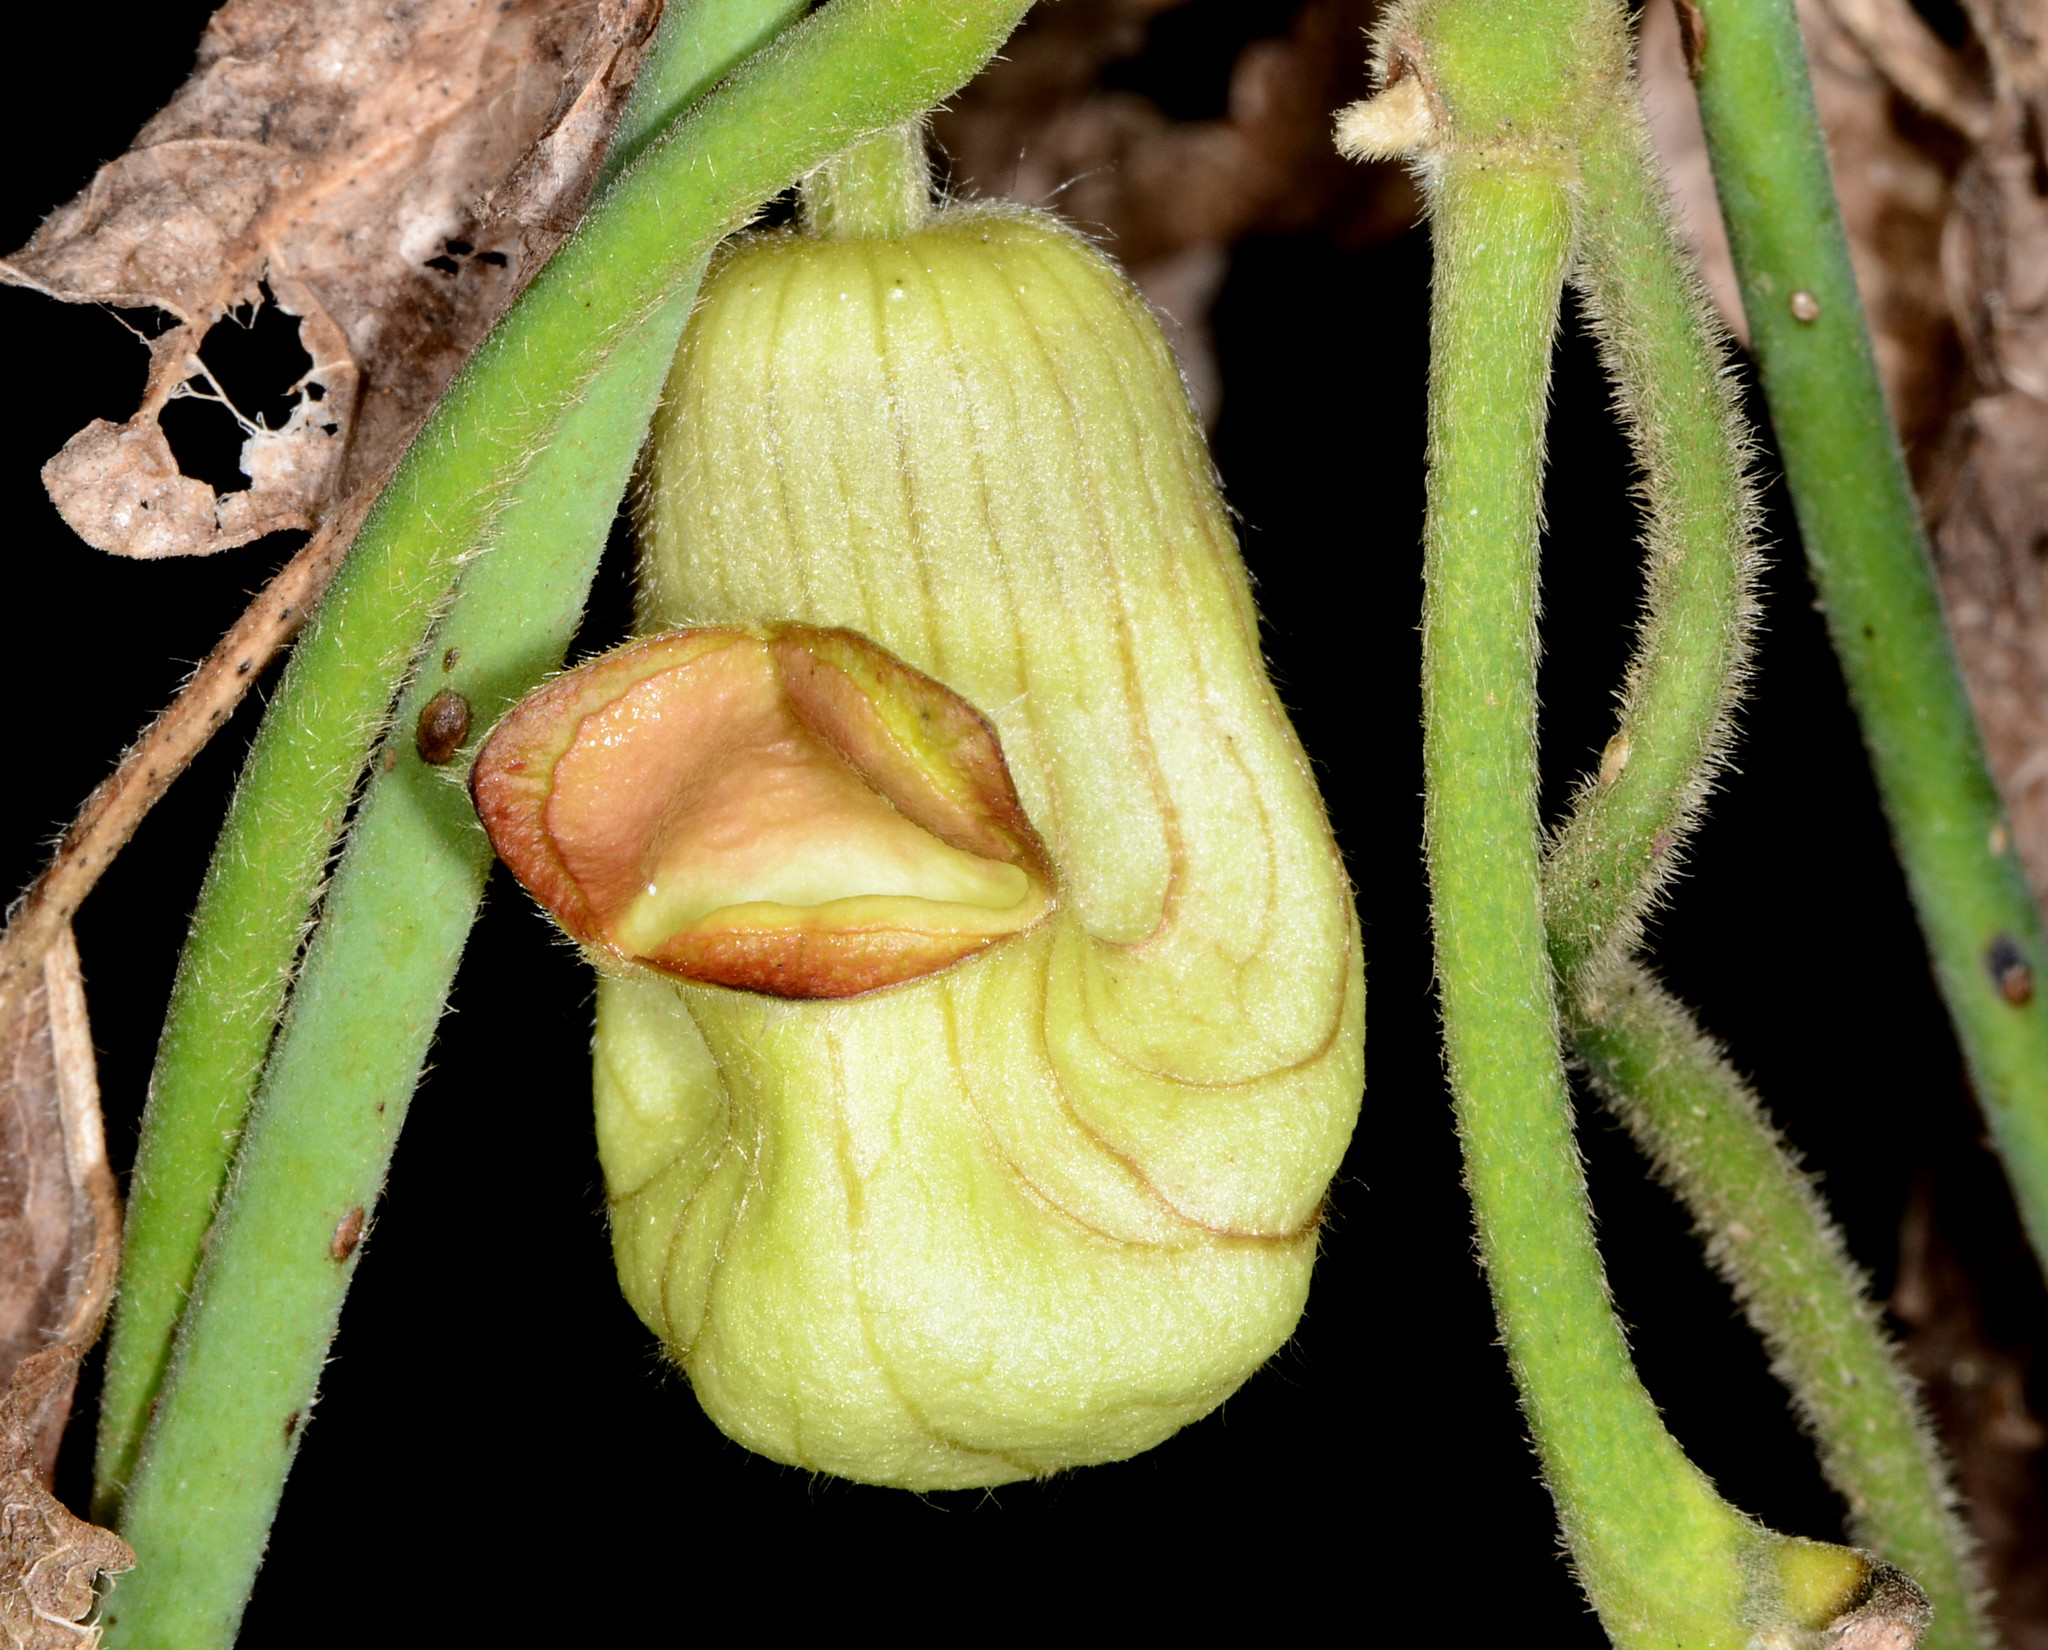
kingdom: Plantae
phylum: Tracheophyta
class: Magnoliopsida
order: Piperales
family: Aristolochiaceae
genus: Isotrema
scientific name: Isotrema californicum
